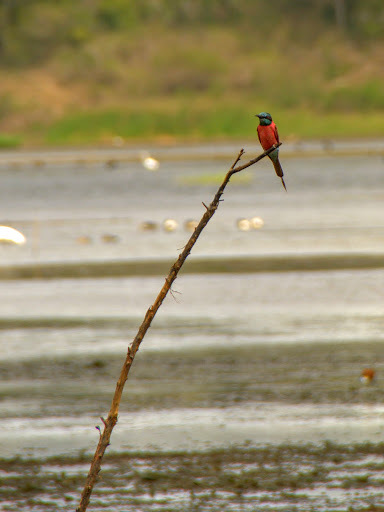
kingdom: Animalia
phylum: Chordata
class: Aves
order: Coraciiformes
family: Meropidae
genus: Merops
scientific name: Merops nubicus
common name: Northern carmine bee-eater
